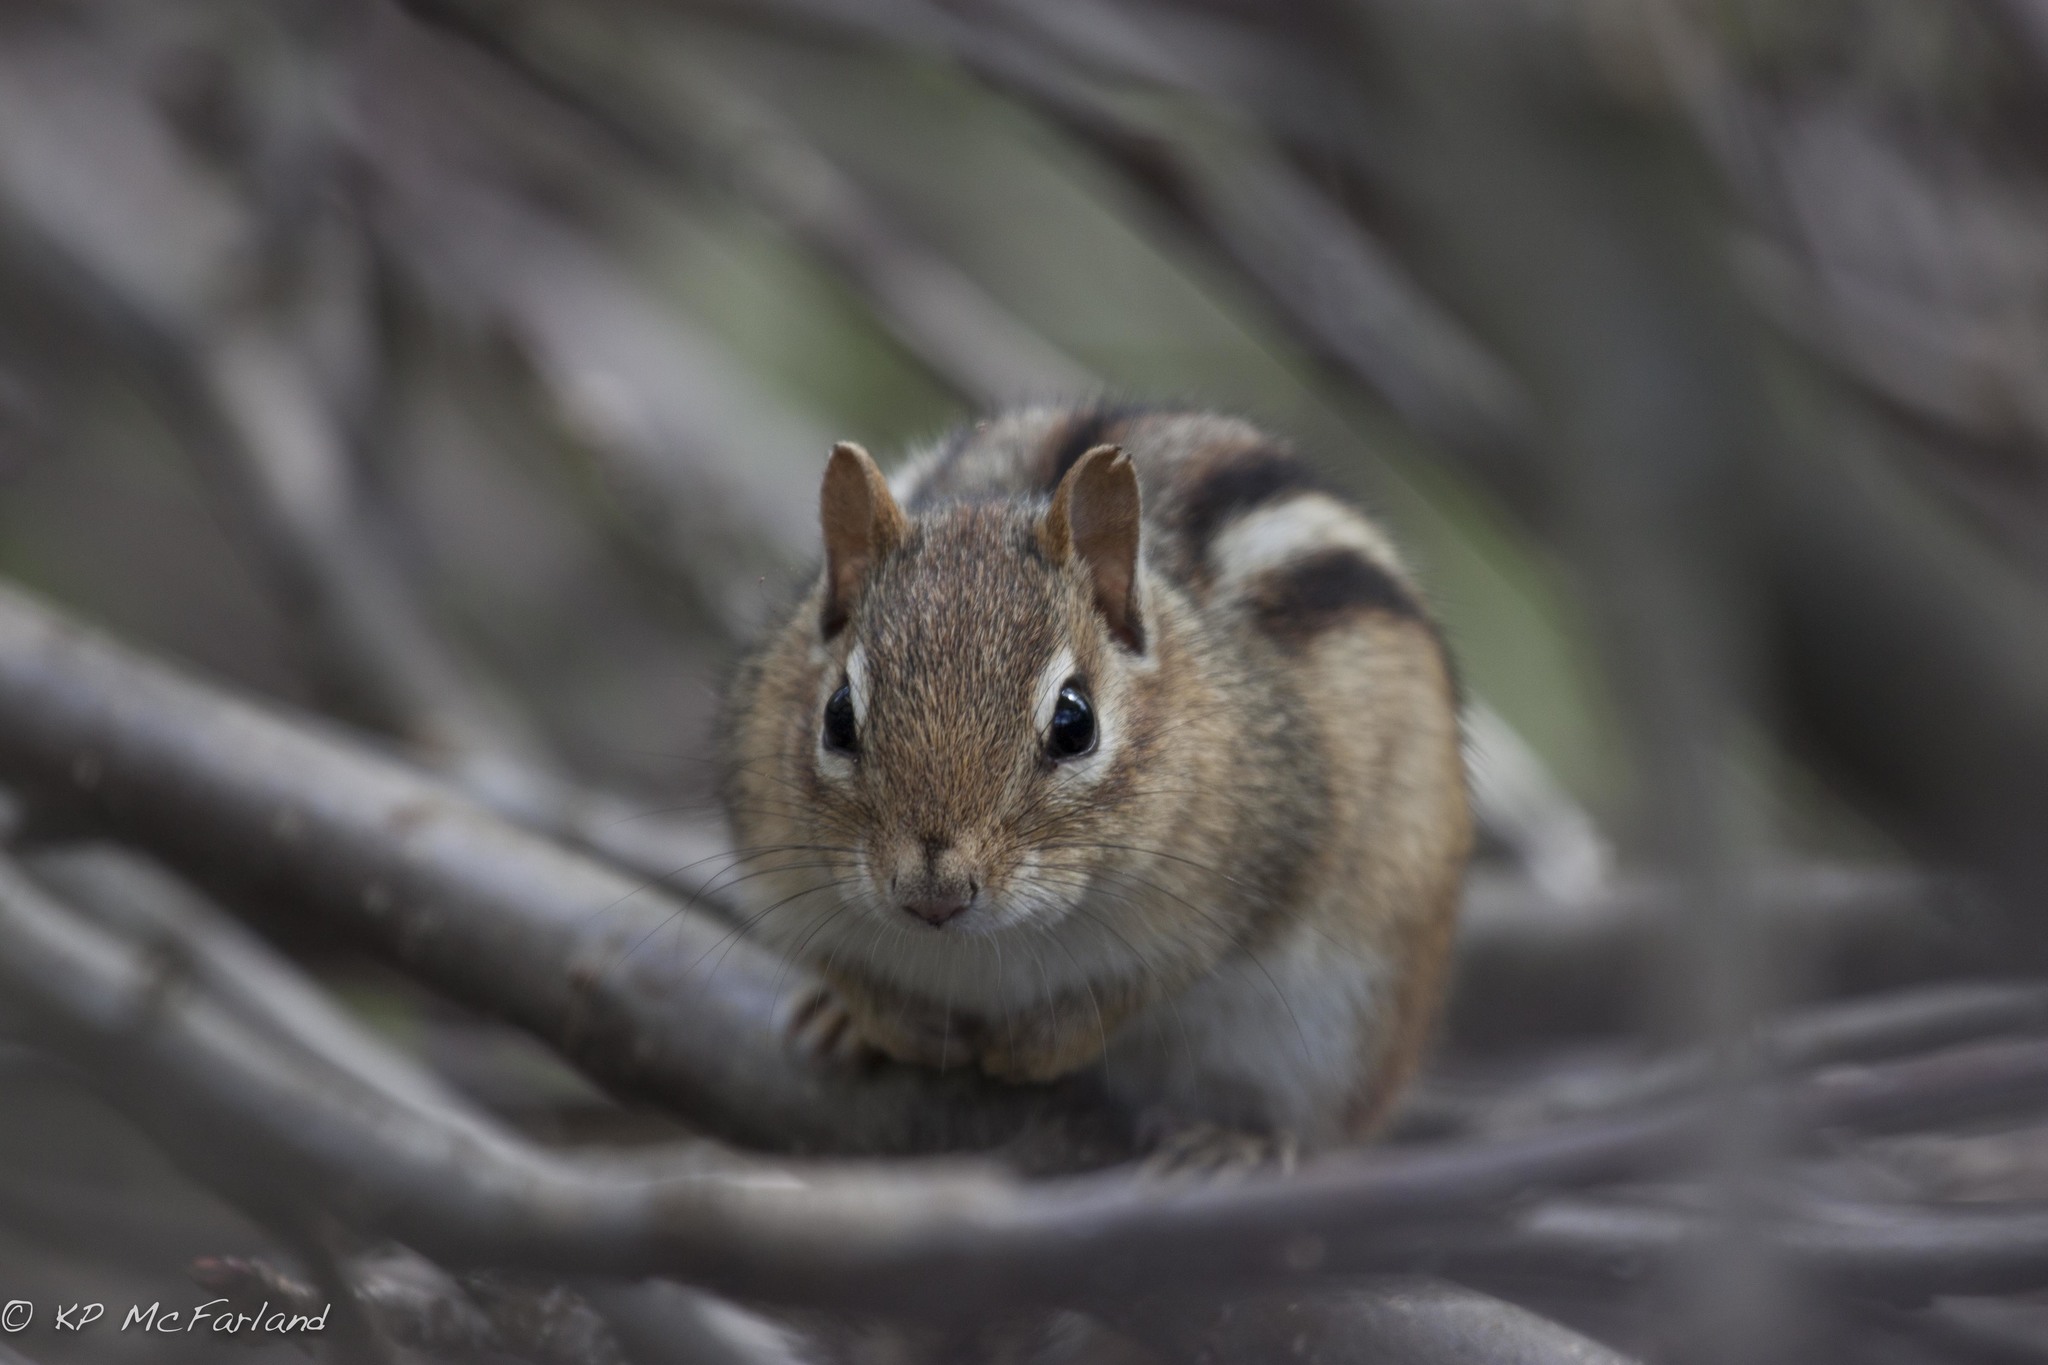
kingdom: Animalia
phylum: Chordata
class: Mammalia
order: Rodentia
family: Sciuridae
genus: Tamias
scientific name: Tamias striatus
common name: Eastern chipmunk
